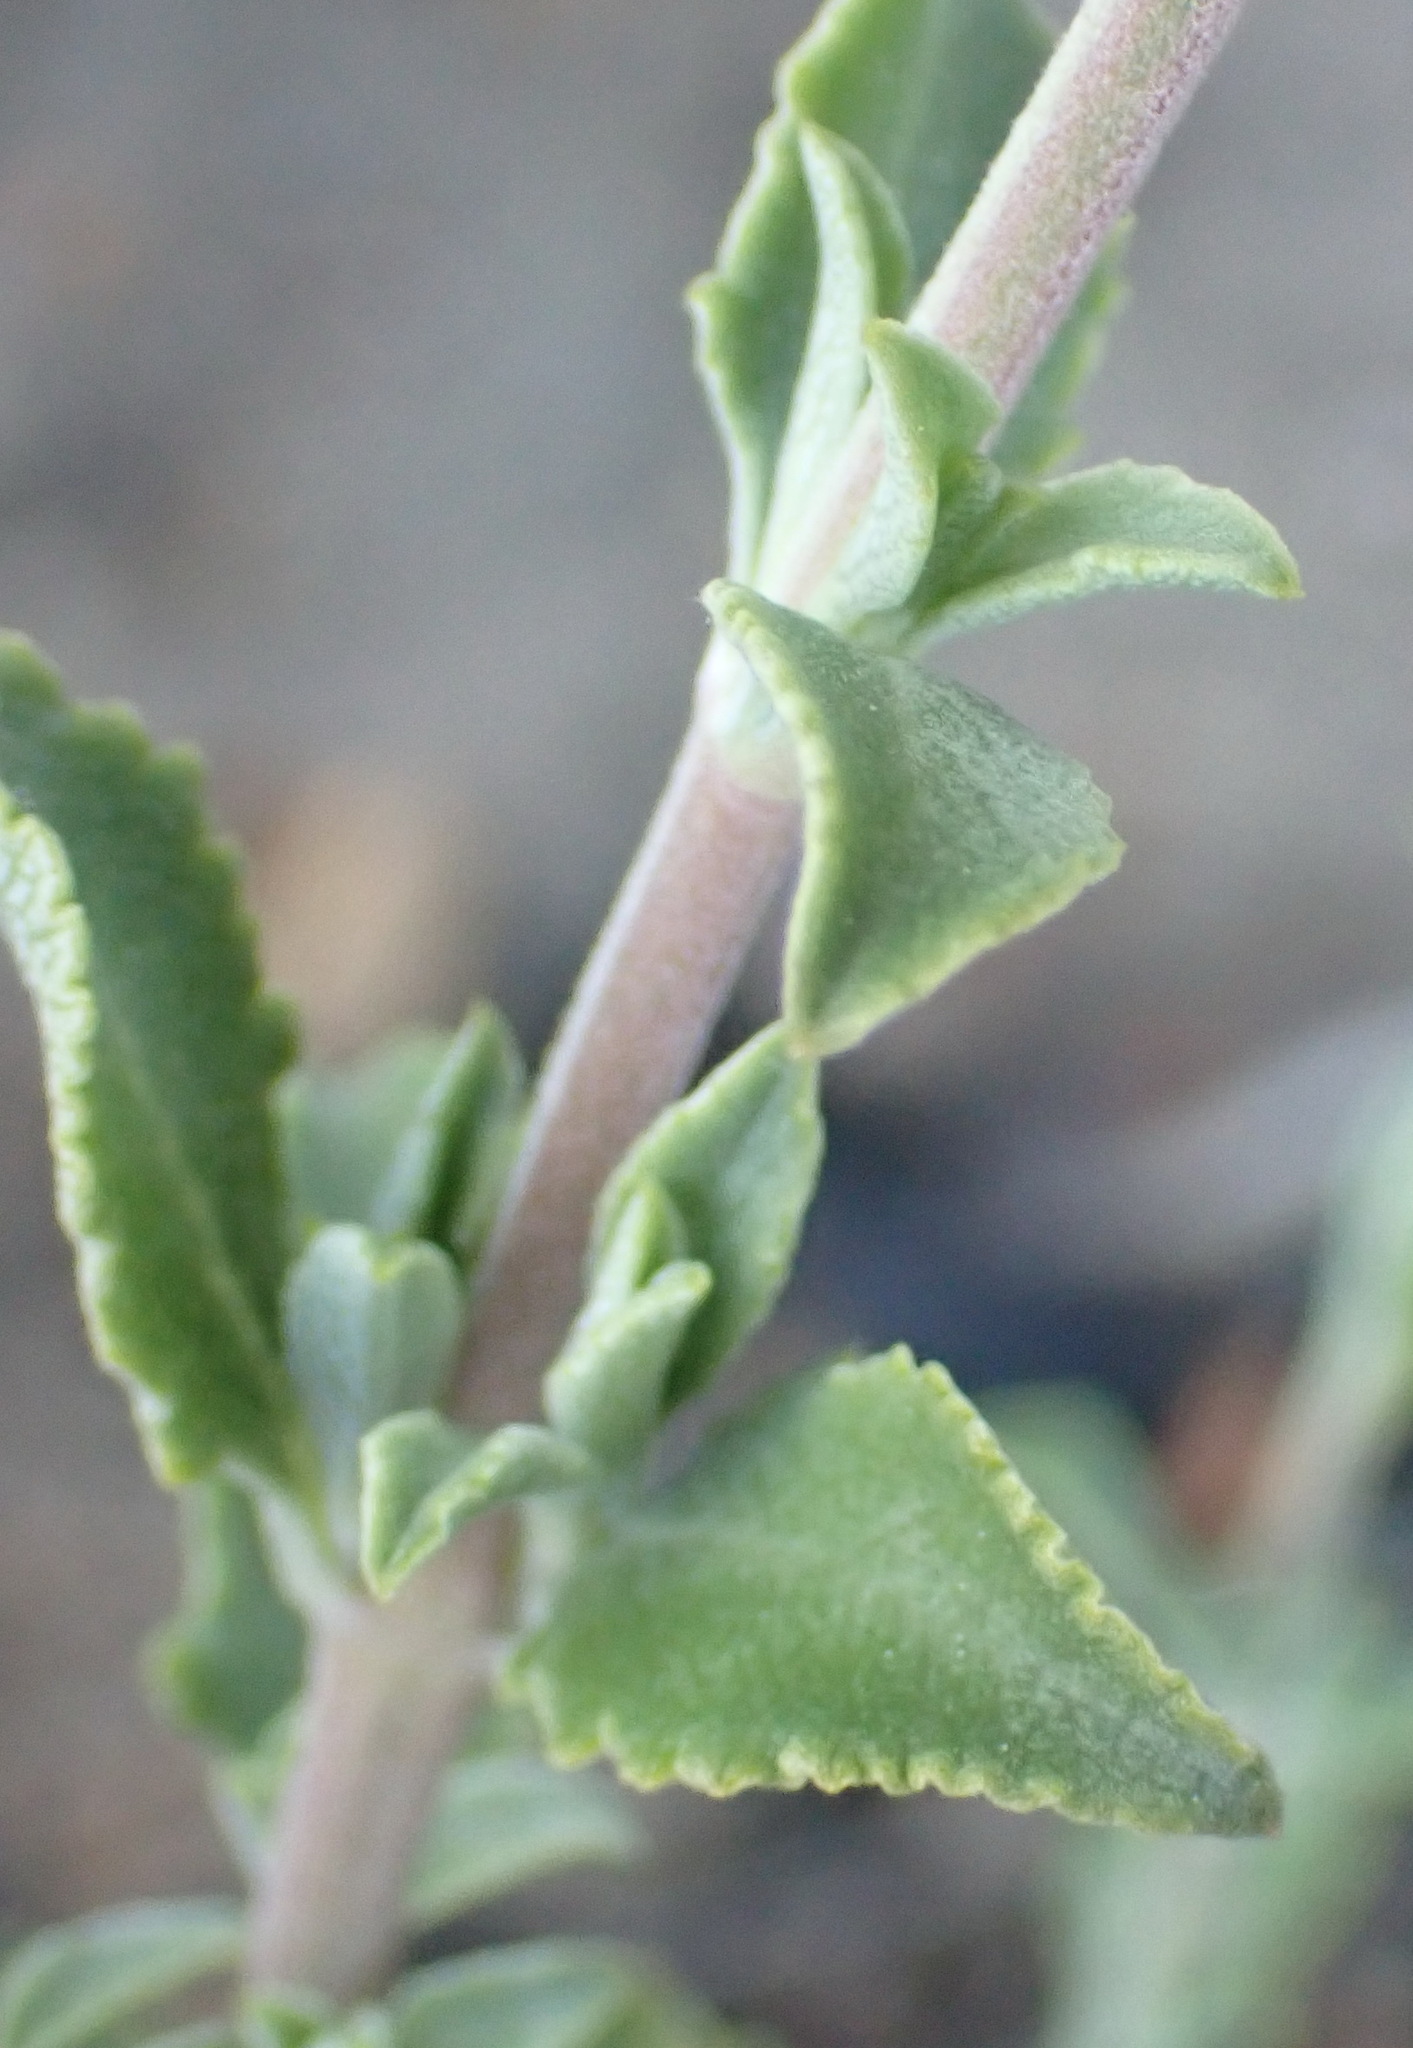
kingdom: Plantae
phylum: Tracheophyta
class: Magnoliopsida
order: Lamiales
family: Lamiaceae
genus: Salvia
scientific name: Salvia africana
